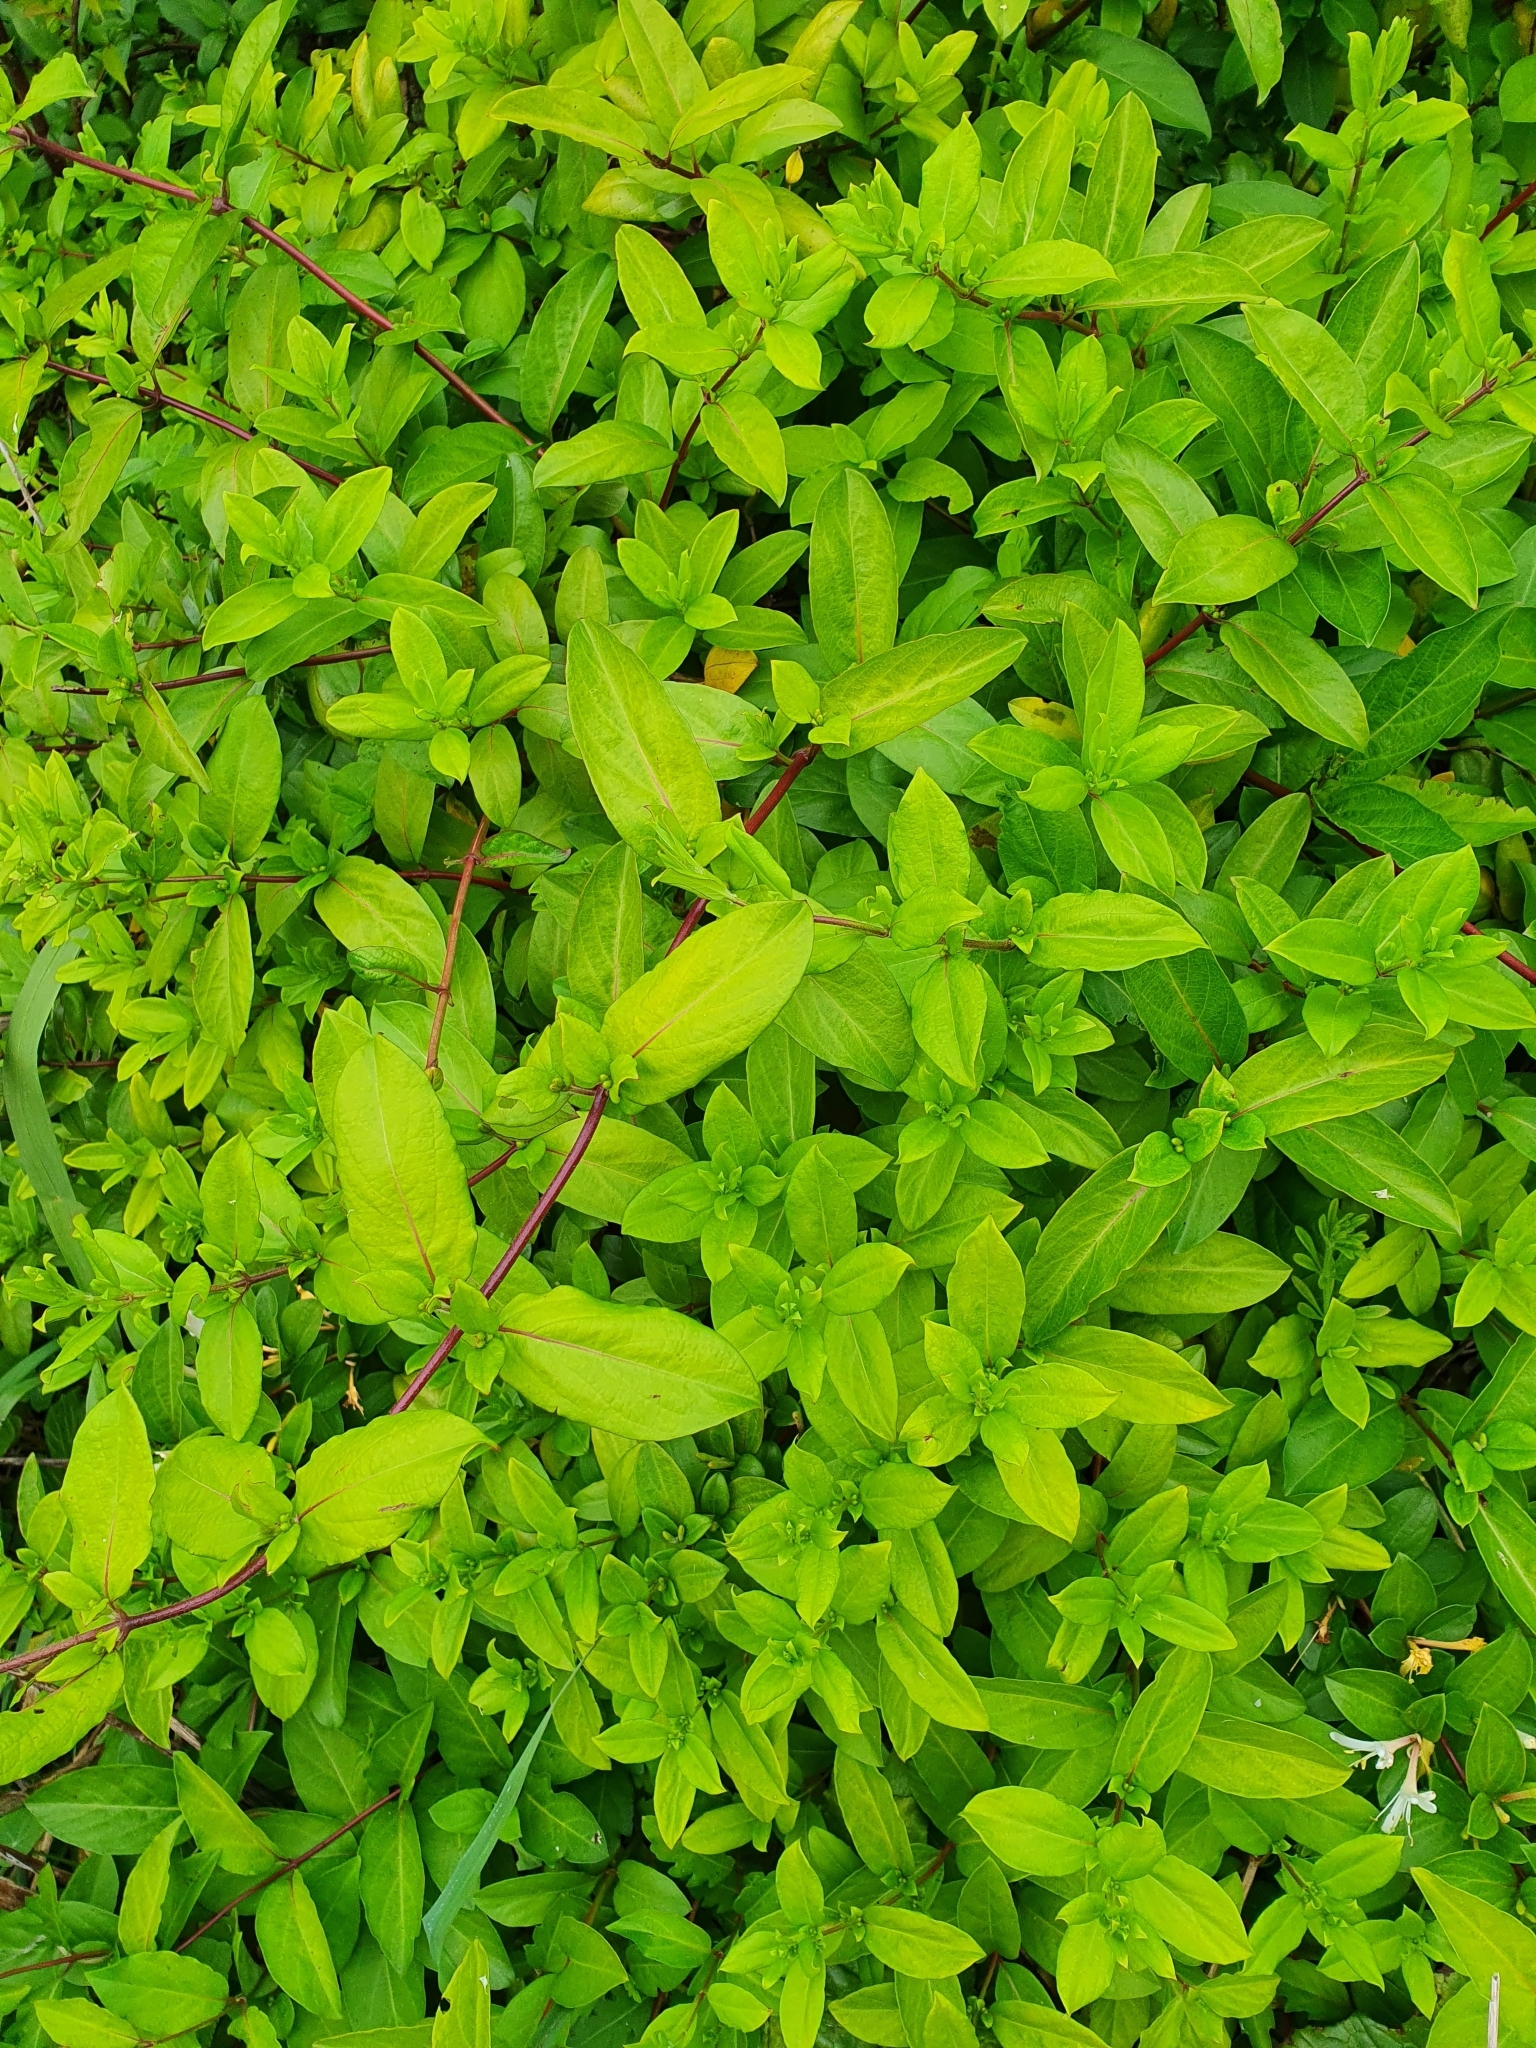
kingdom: Plantae
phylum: Tracheophyta
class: Magnoliopsida
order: Dipsacales
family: Caprifoliaceae
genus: Lonicera
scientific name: Lonicera japonica
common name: Japanese honeysuckle
